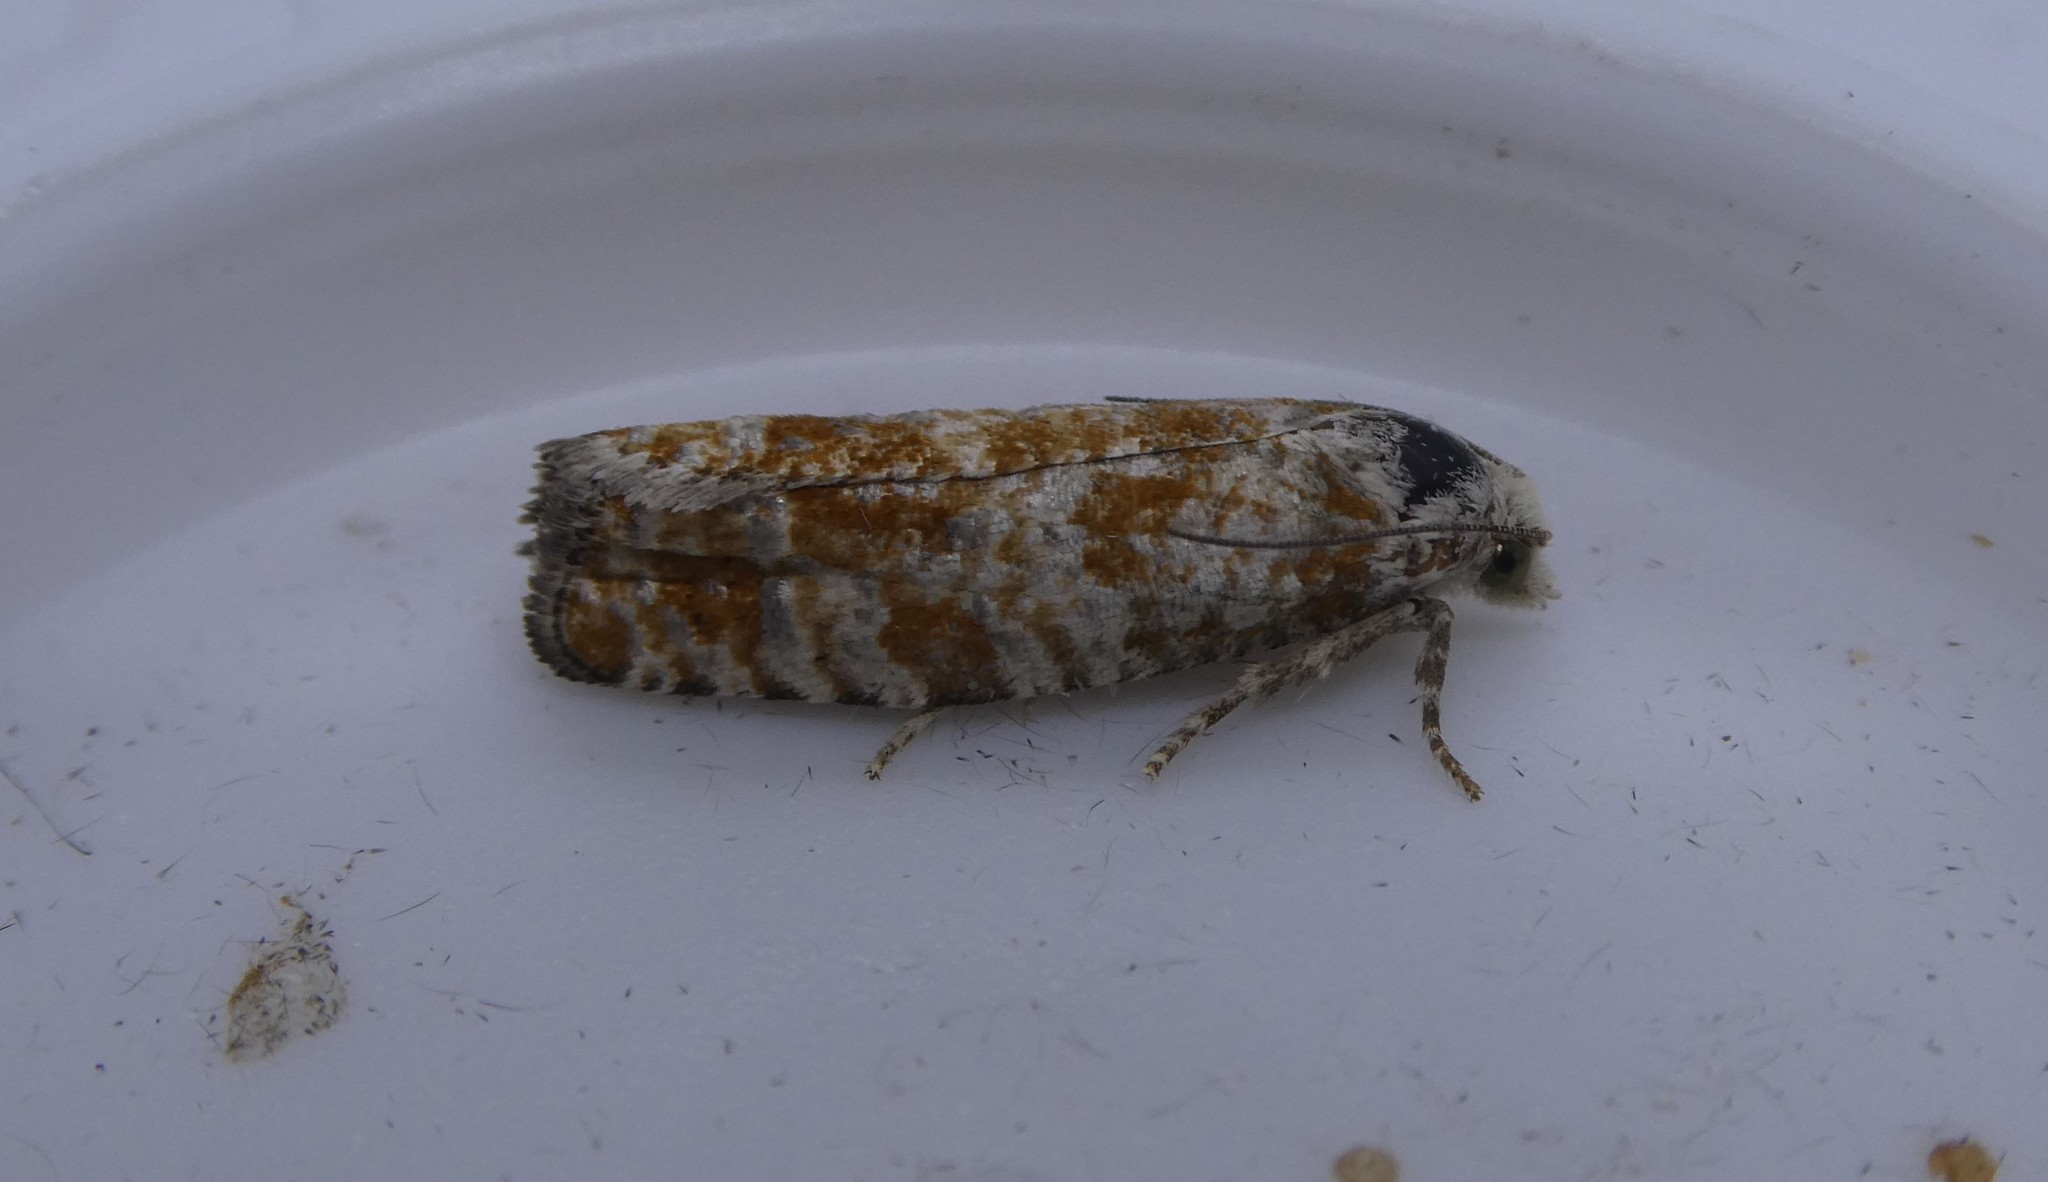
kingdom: Animalia
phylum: Arthropoda
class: Insecta
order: Lepidoptera
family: Tortricidae
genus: Retinia
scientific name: Retinia albicapitana
